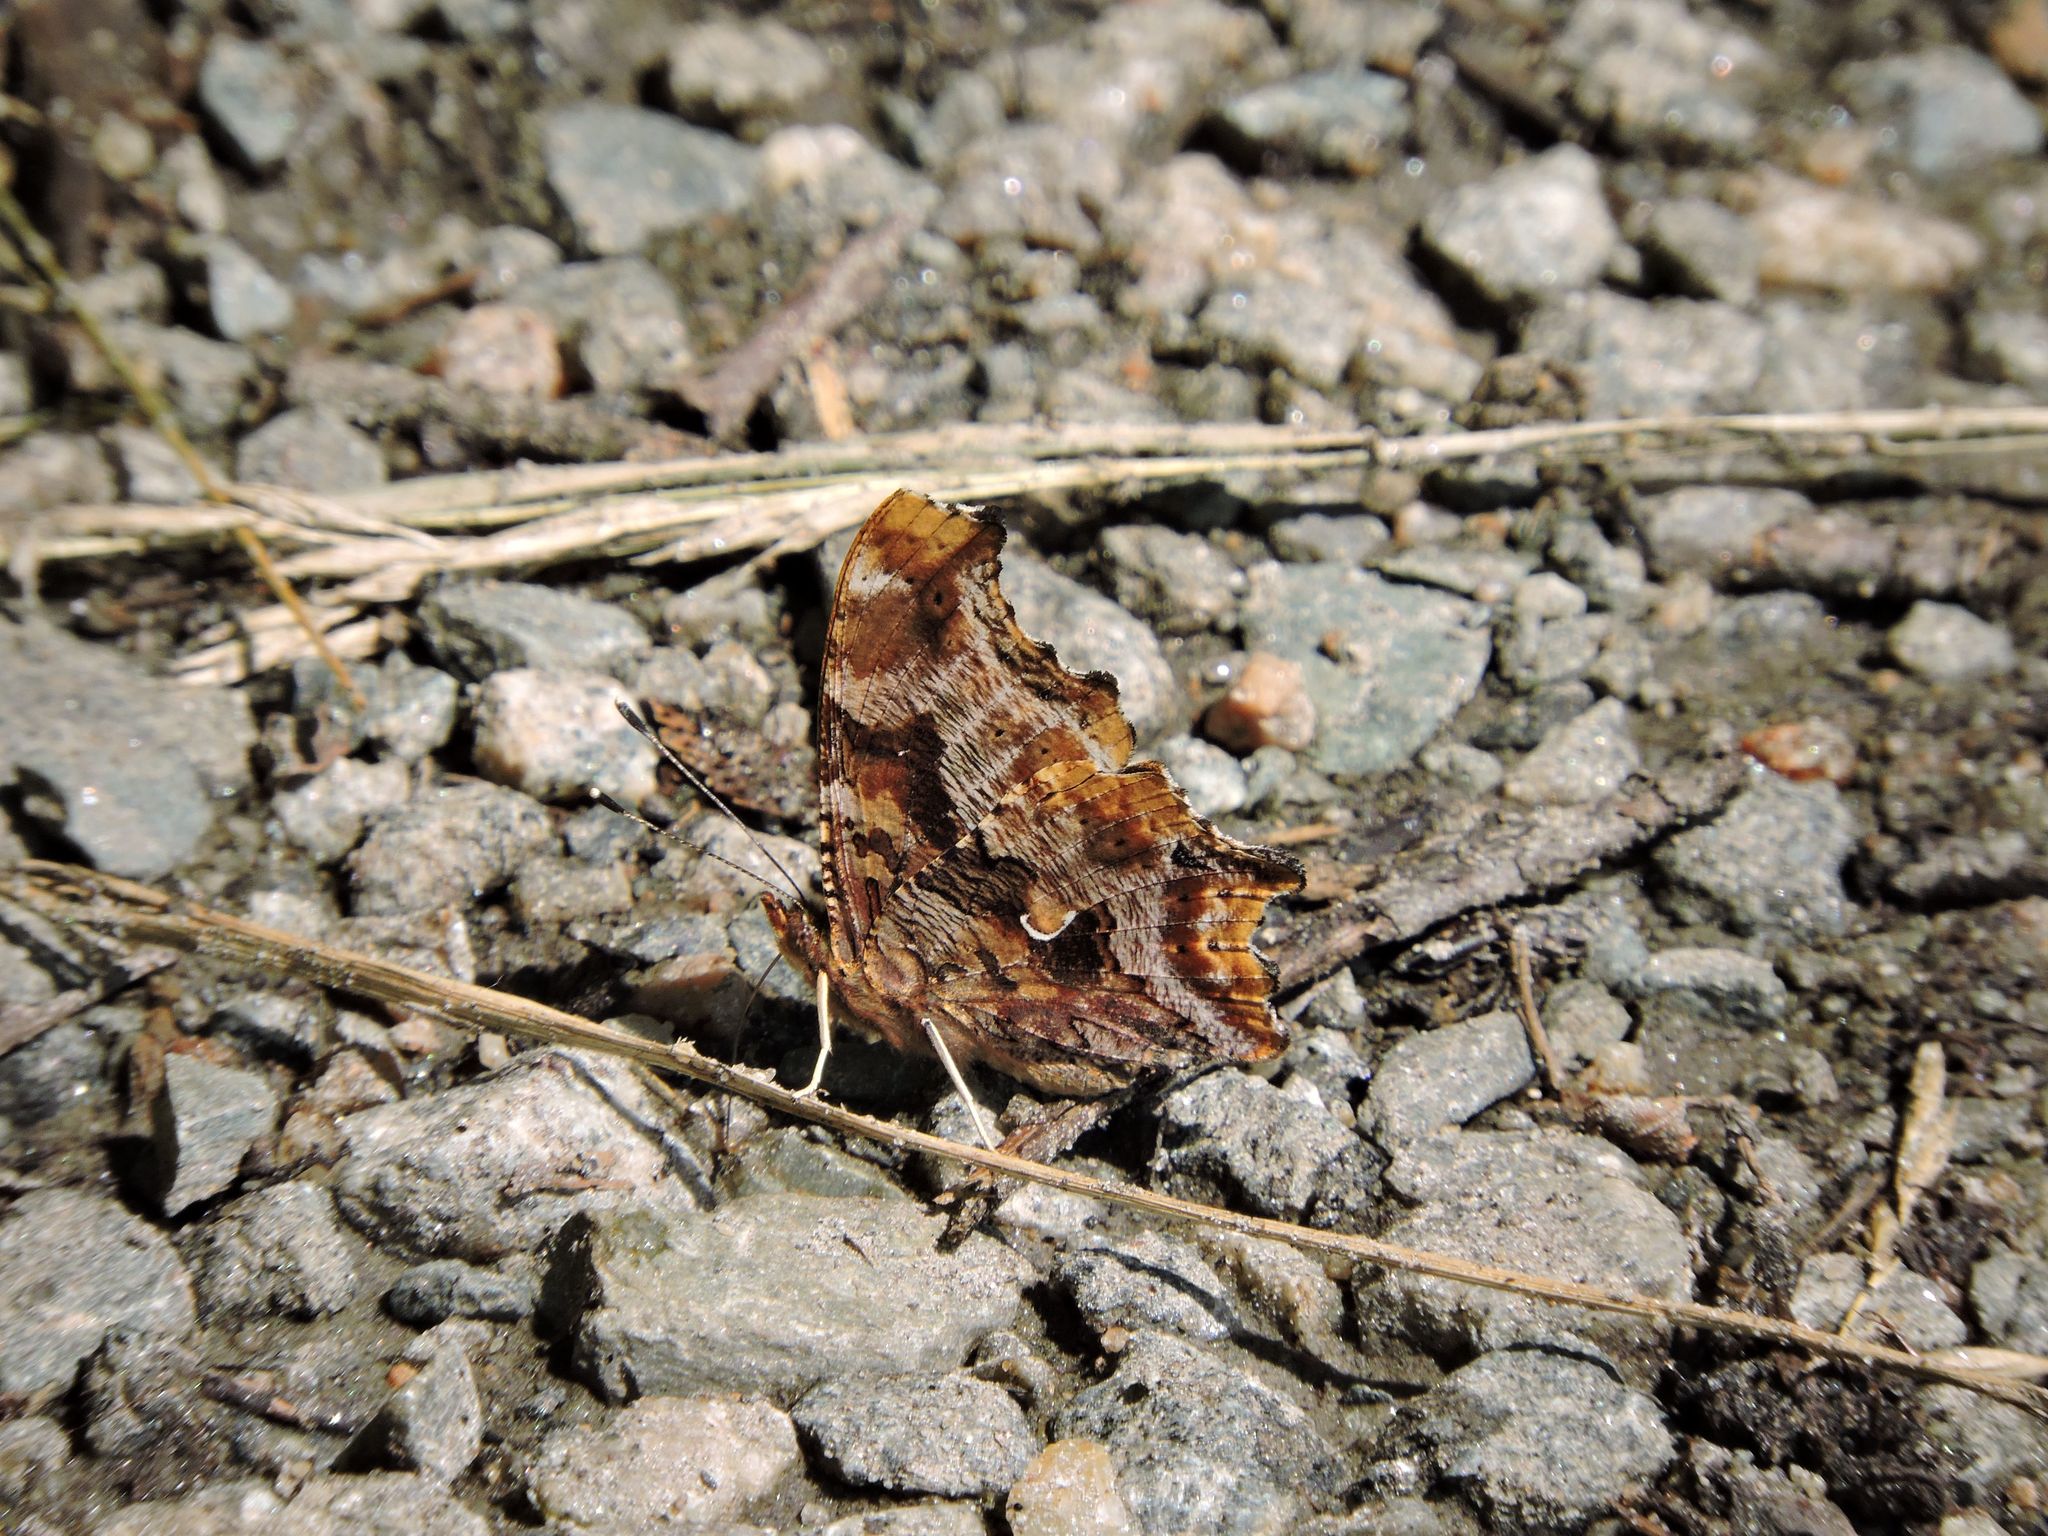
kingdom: Animalia
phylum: Arthropoda
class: Insecta
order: Lepidoptera
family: Nymphalidae
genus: Polygonia
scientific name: Polygonia comma
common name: Eastern comma
